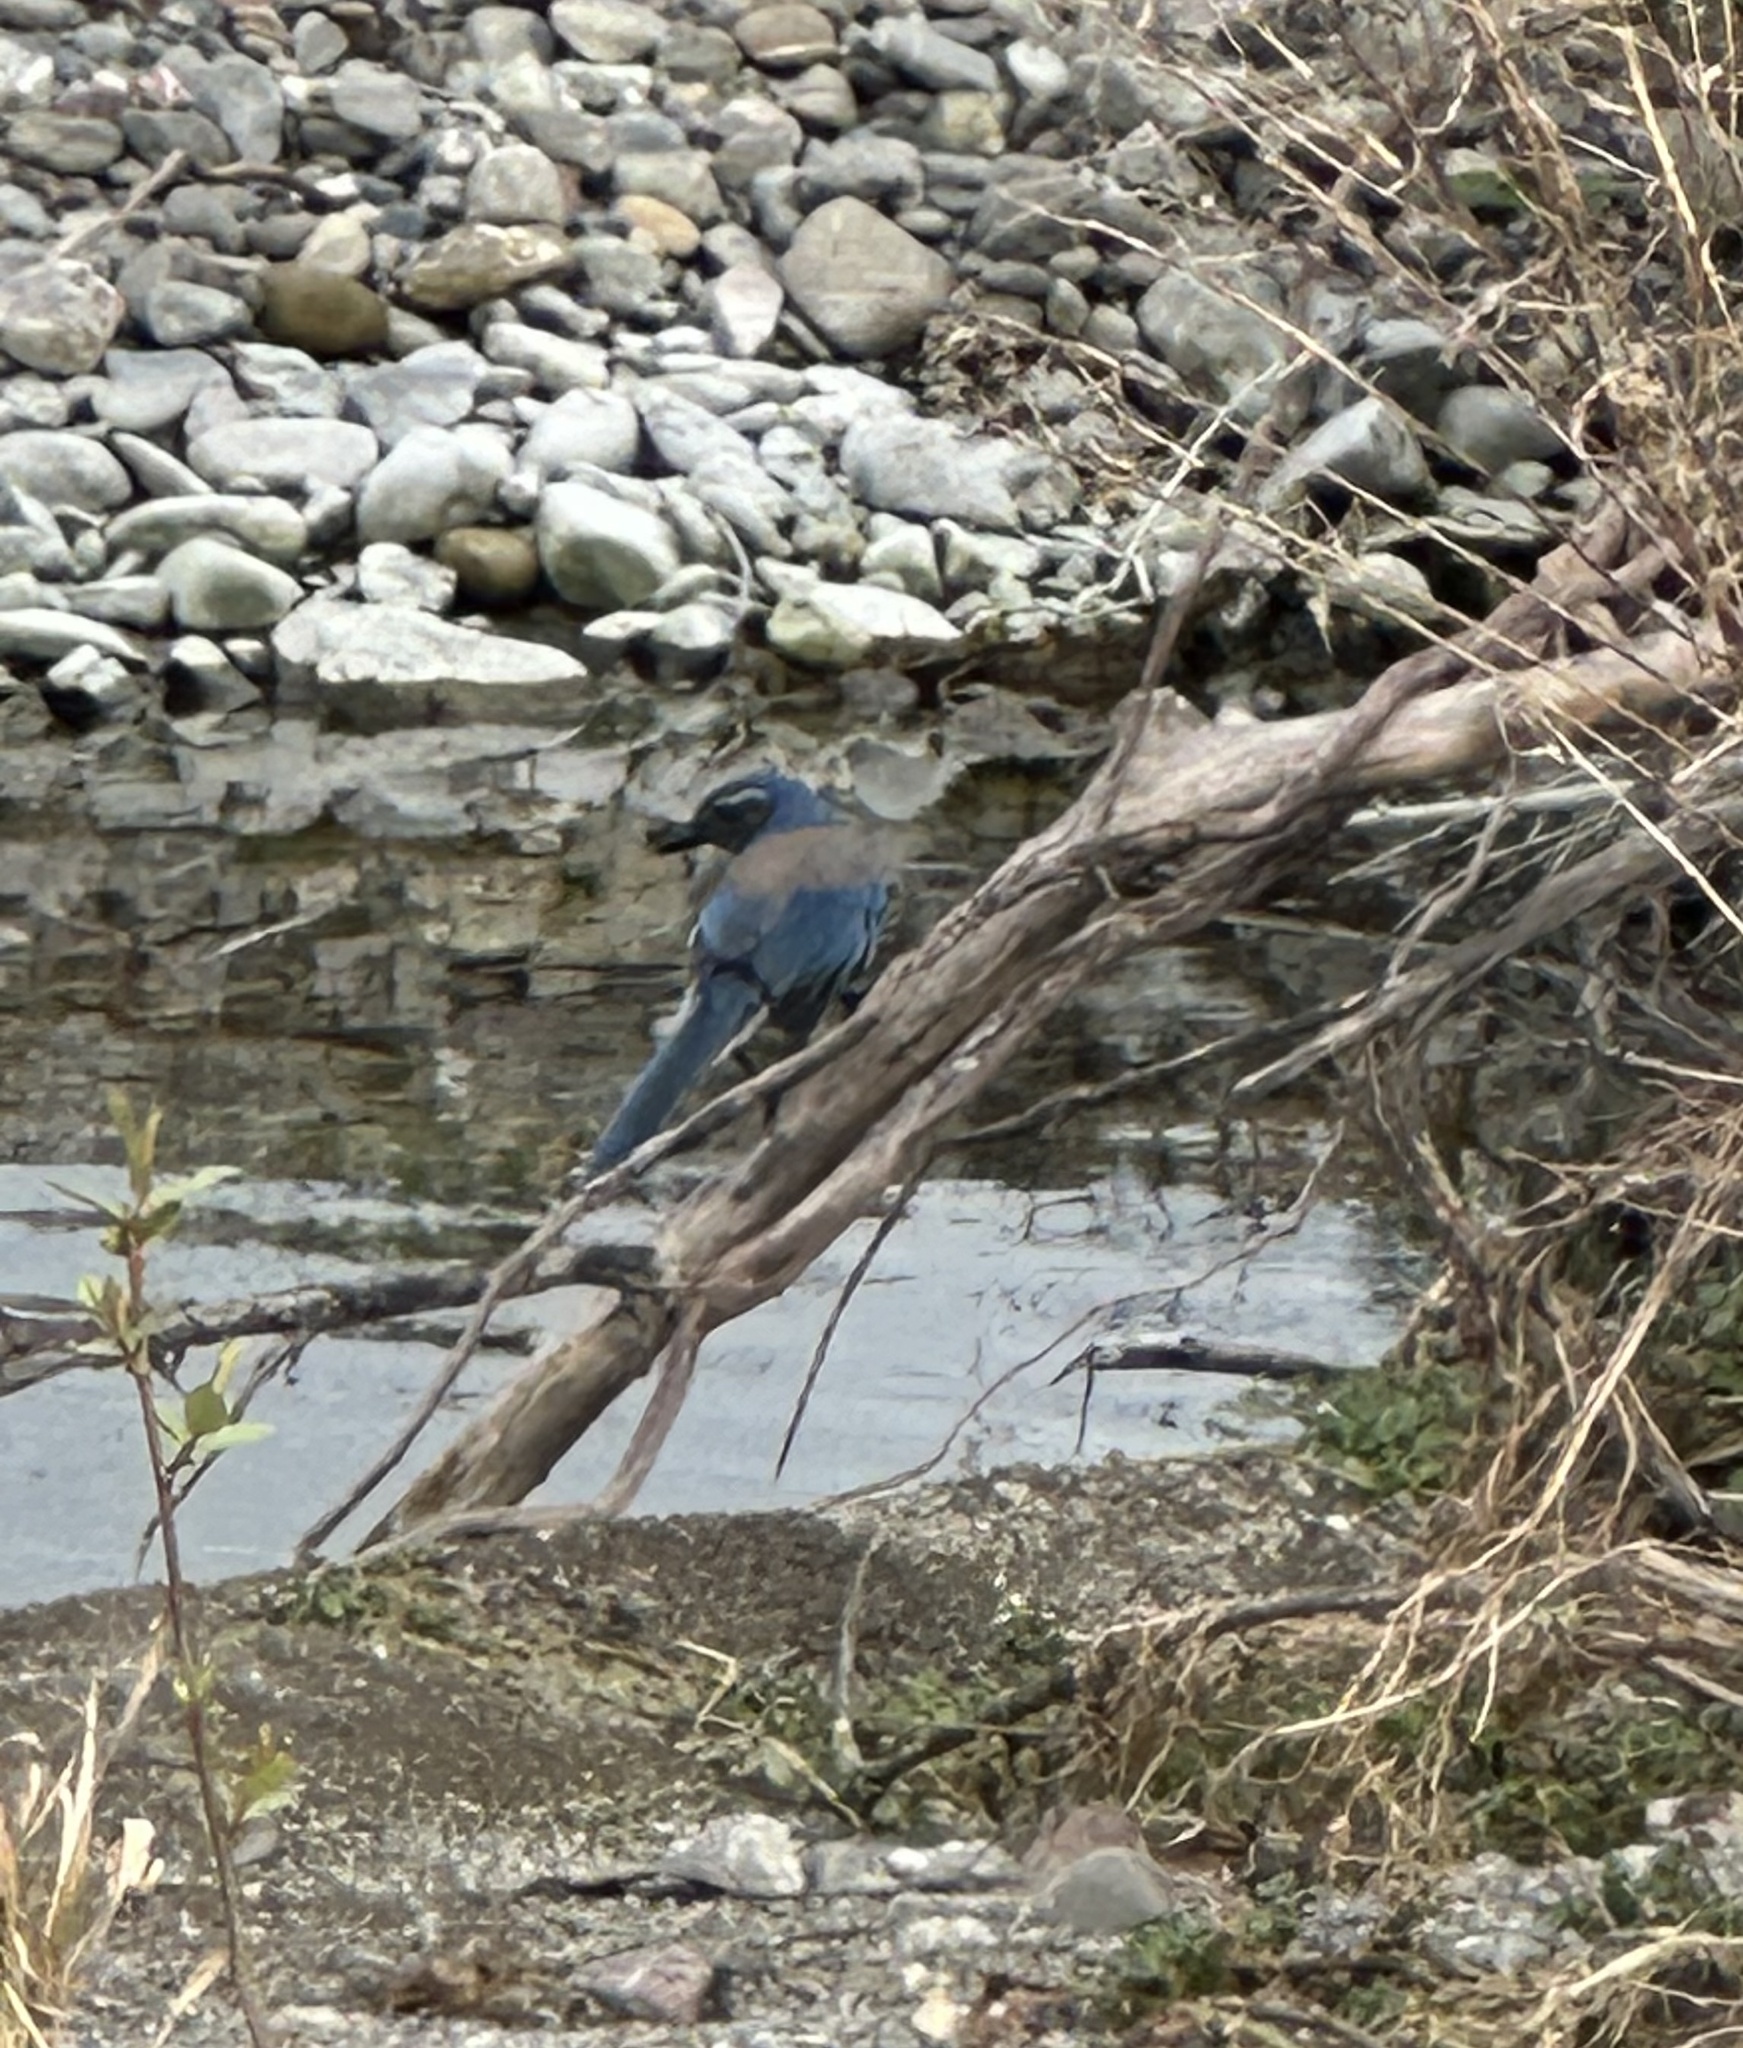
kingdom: Animalia
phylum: Chordata
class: Aves
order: Passeriformes
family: Corvidae
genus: Aphelocoma
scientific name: Aphelocoma californica
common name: California scrub-jay
